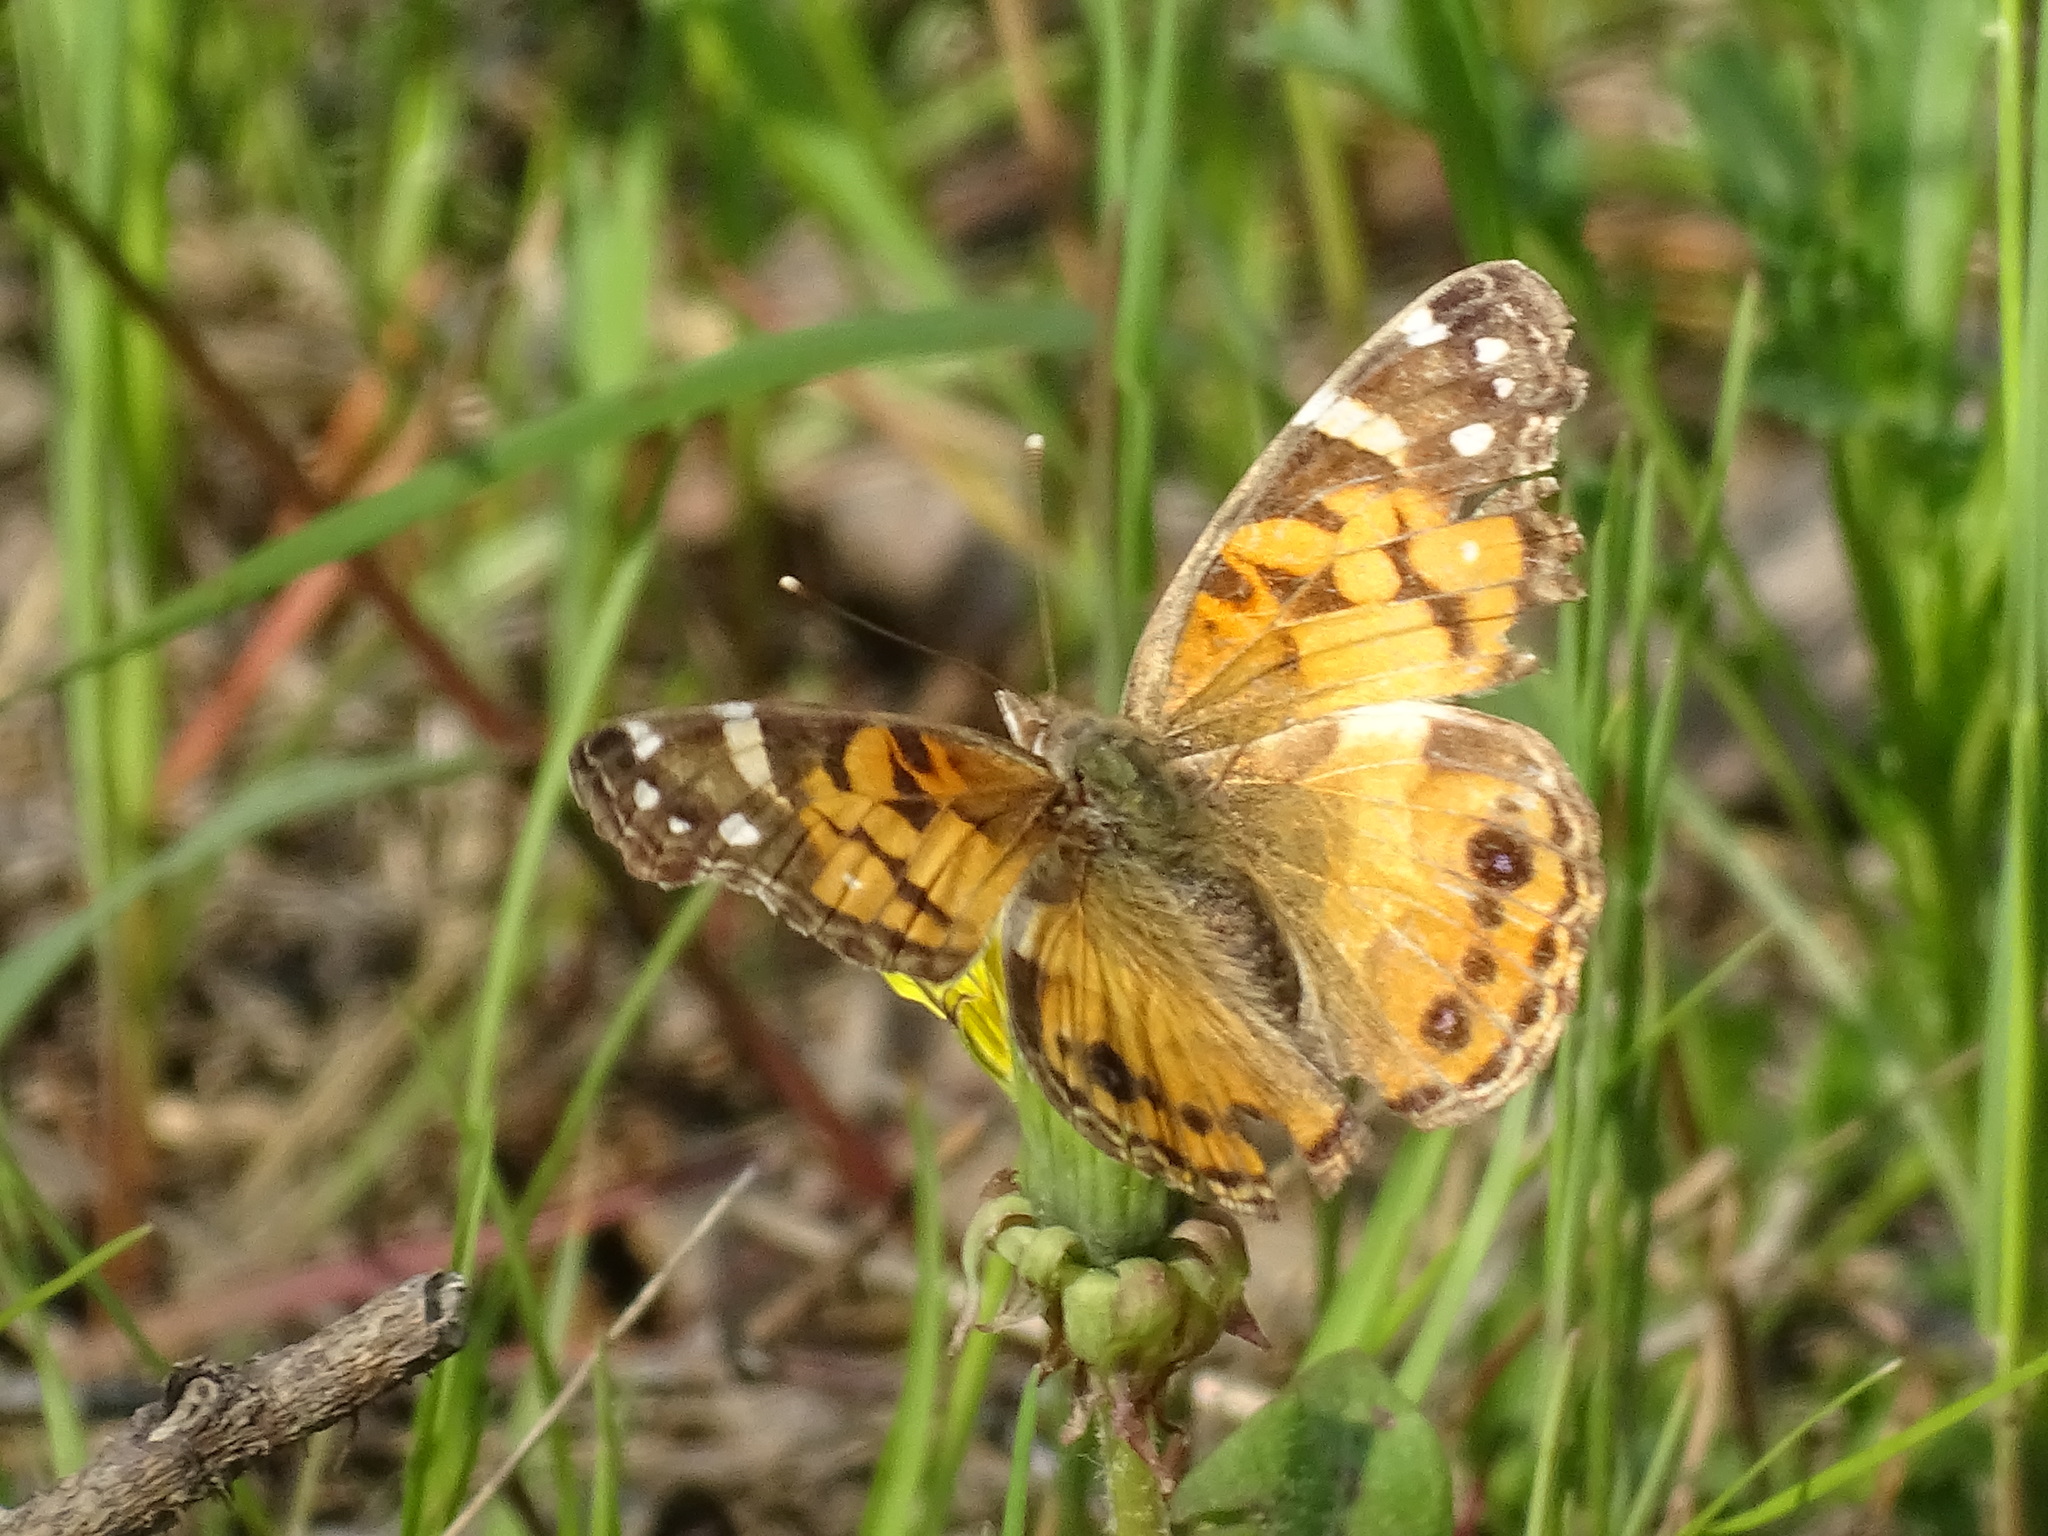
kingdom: Animalia
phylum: Arthropoda
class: Insecta
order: Lepidoptera
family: Nymphalidae
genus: Vanessa
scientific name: Vanessa virginiensis
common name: American lady
